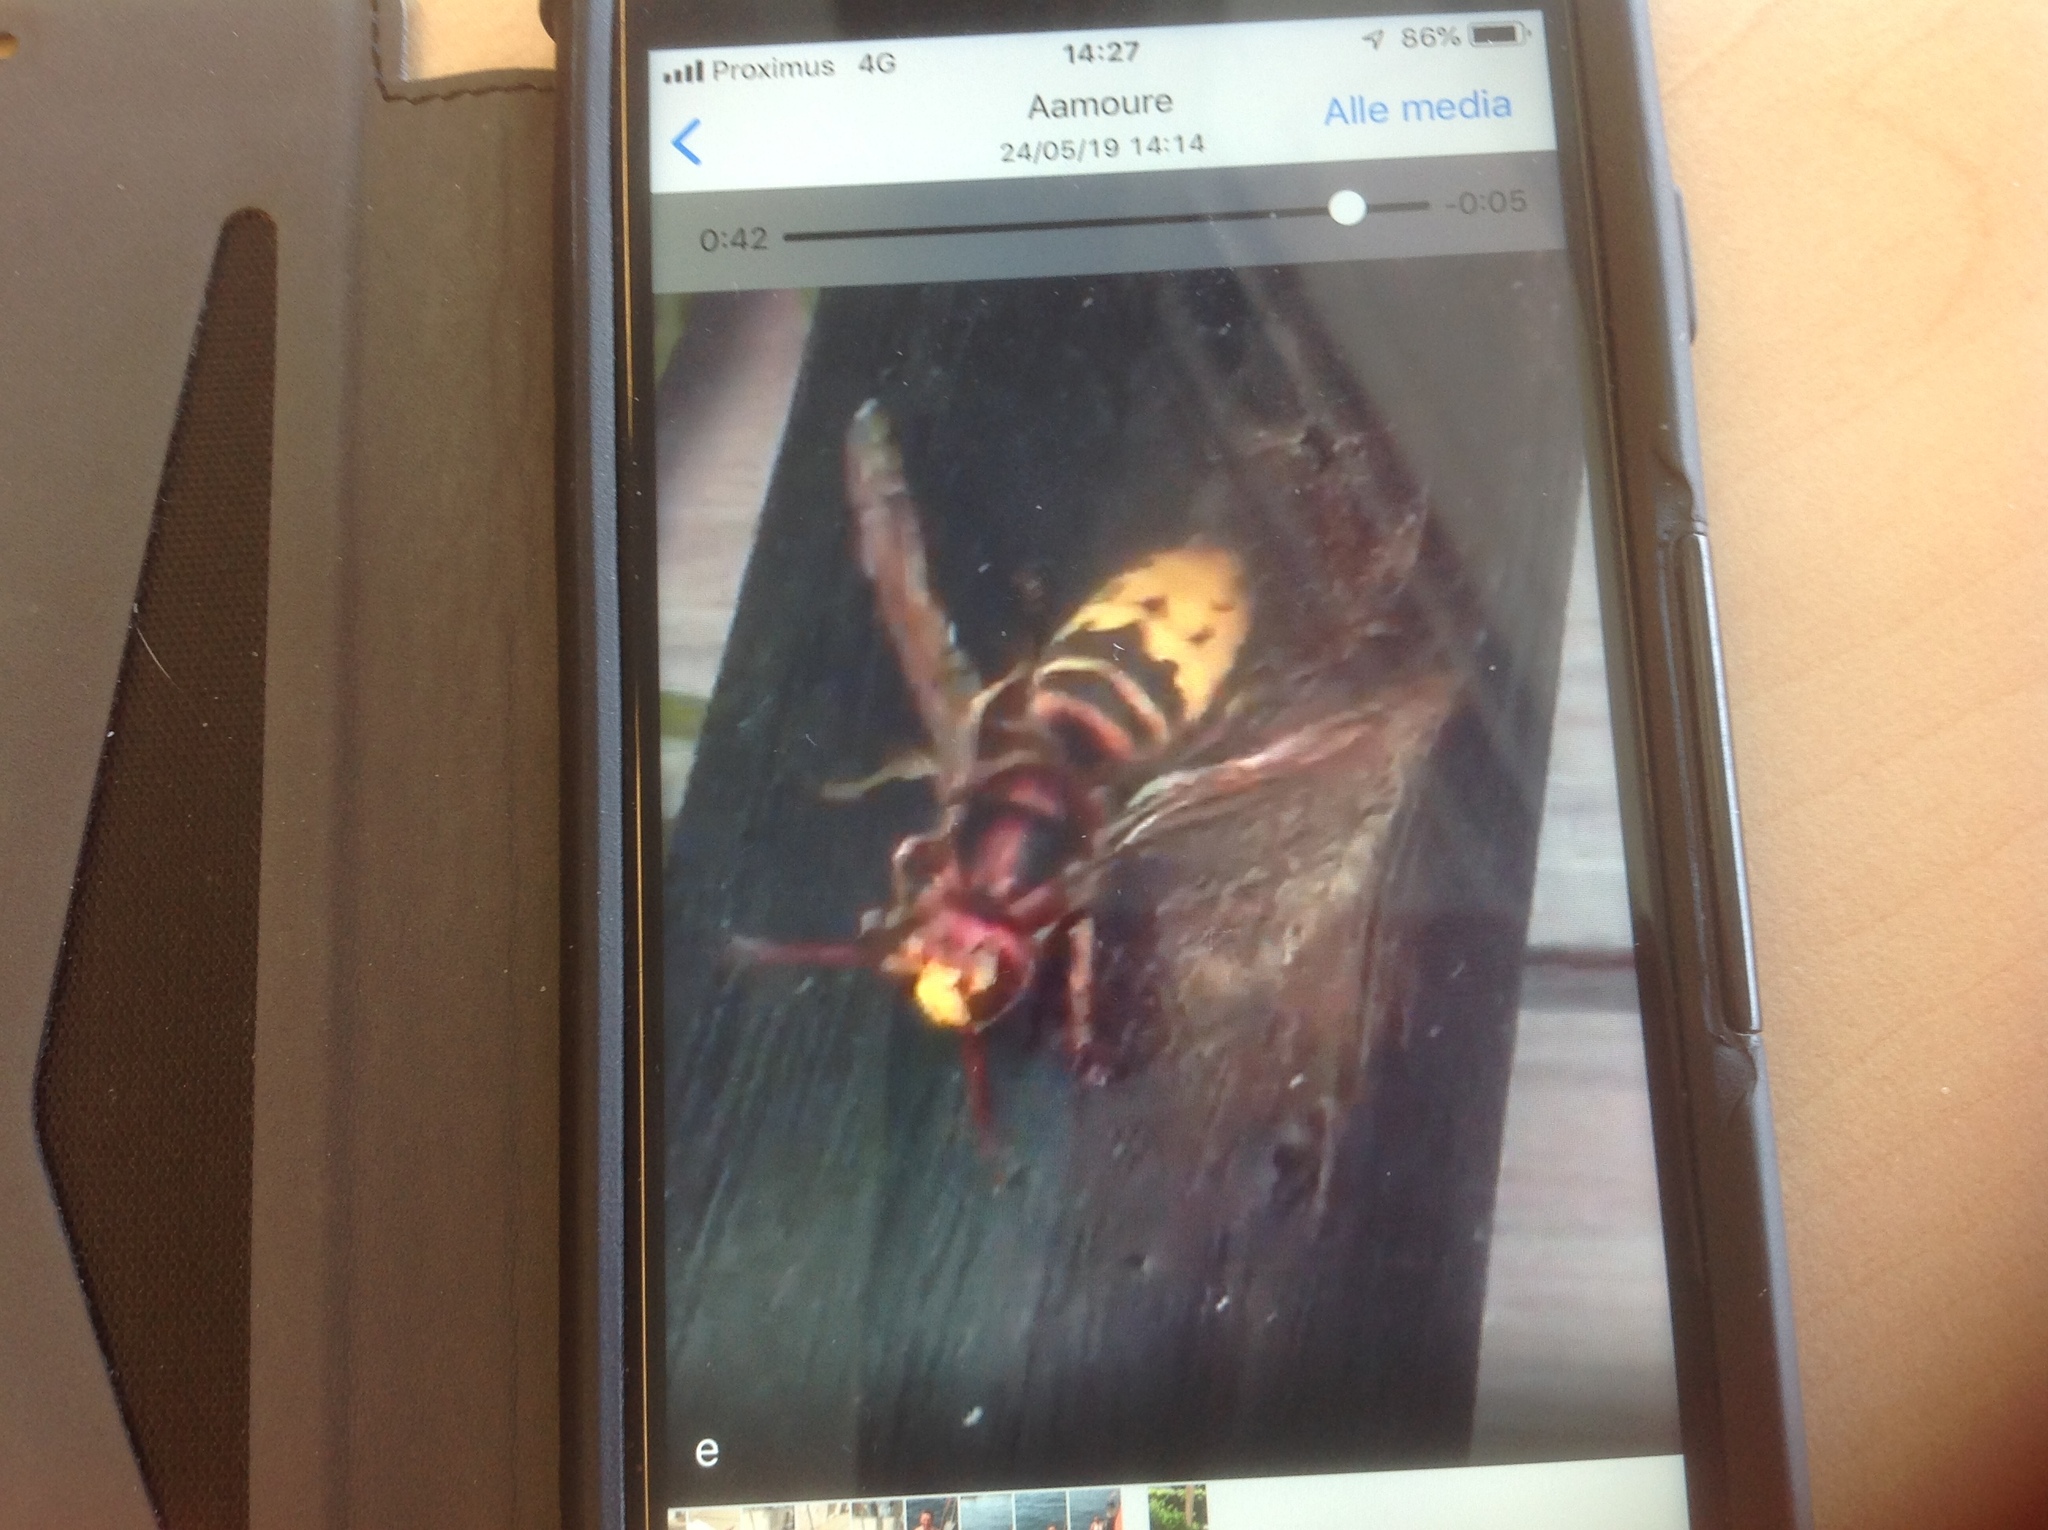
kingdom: Animalia
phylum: Arthropoda
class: Insecta
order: Hymenoptera
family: Vespidae
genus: Vespa
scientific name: Vespa crabro
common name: Hornet
